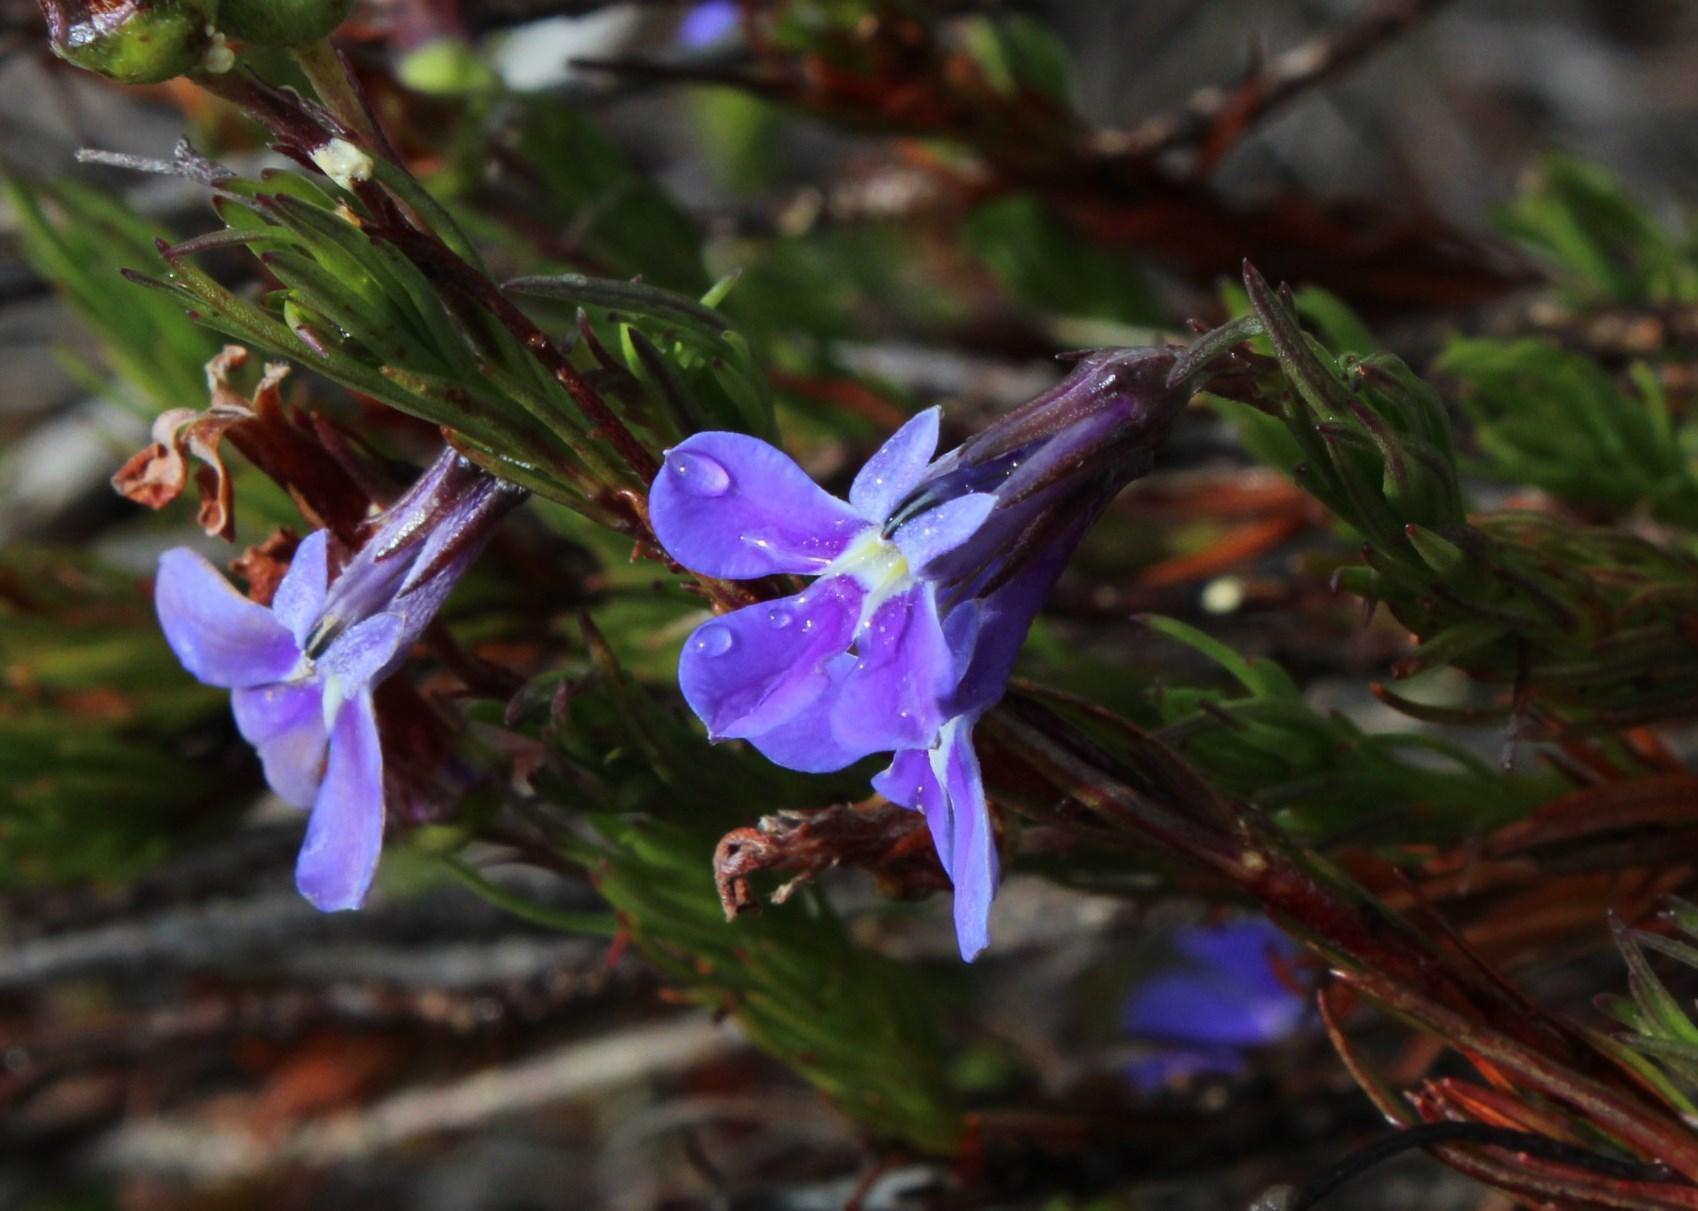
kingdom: Plantae
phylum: Tracheophyta
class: Magnoliopsida
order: Asterales
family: Campanulaceae
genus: Lobelia
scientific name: Lobelia pinifolia
